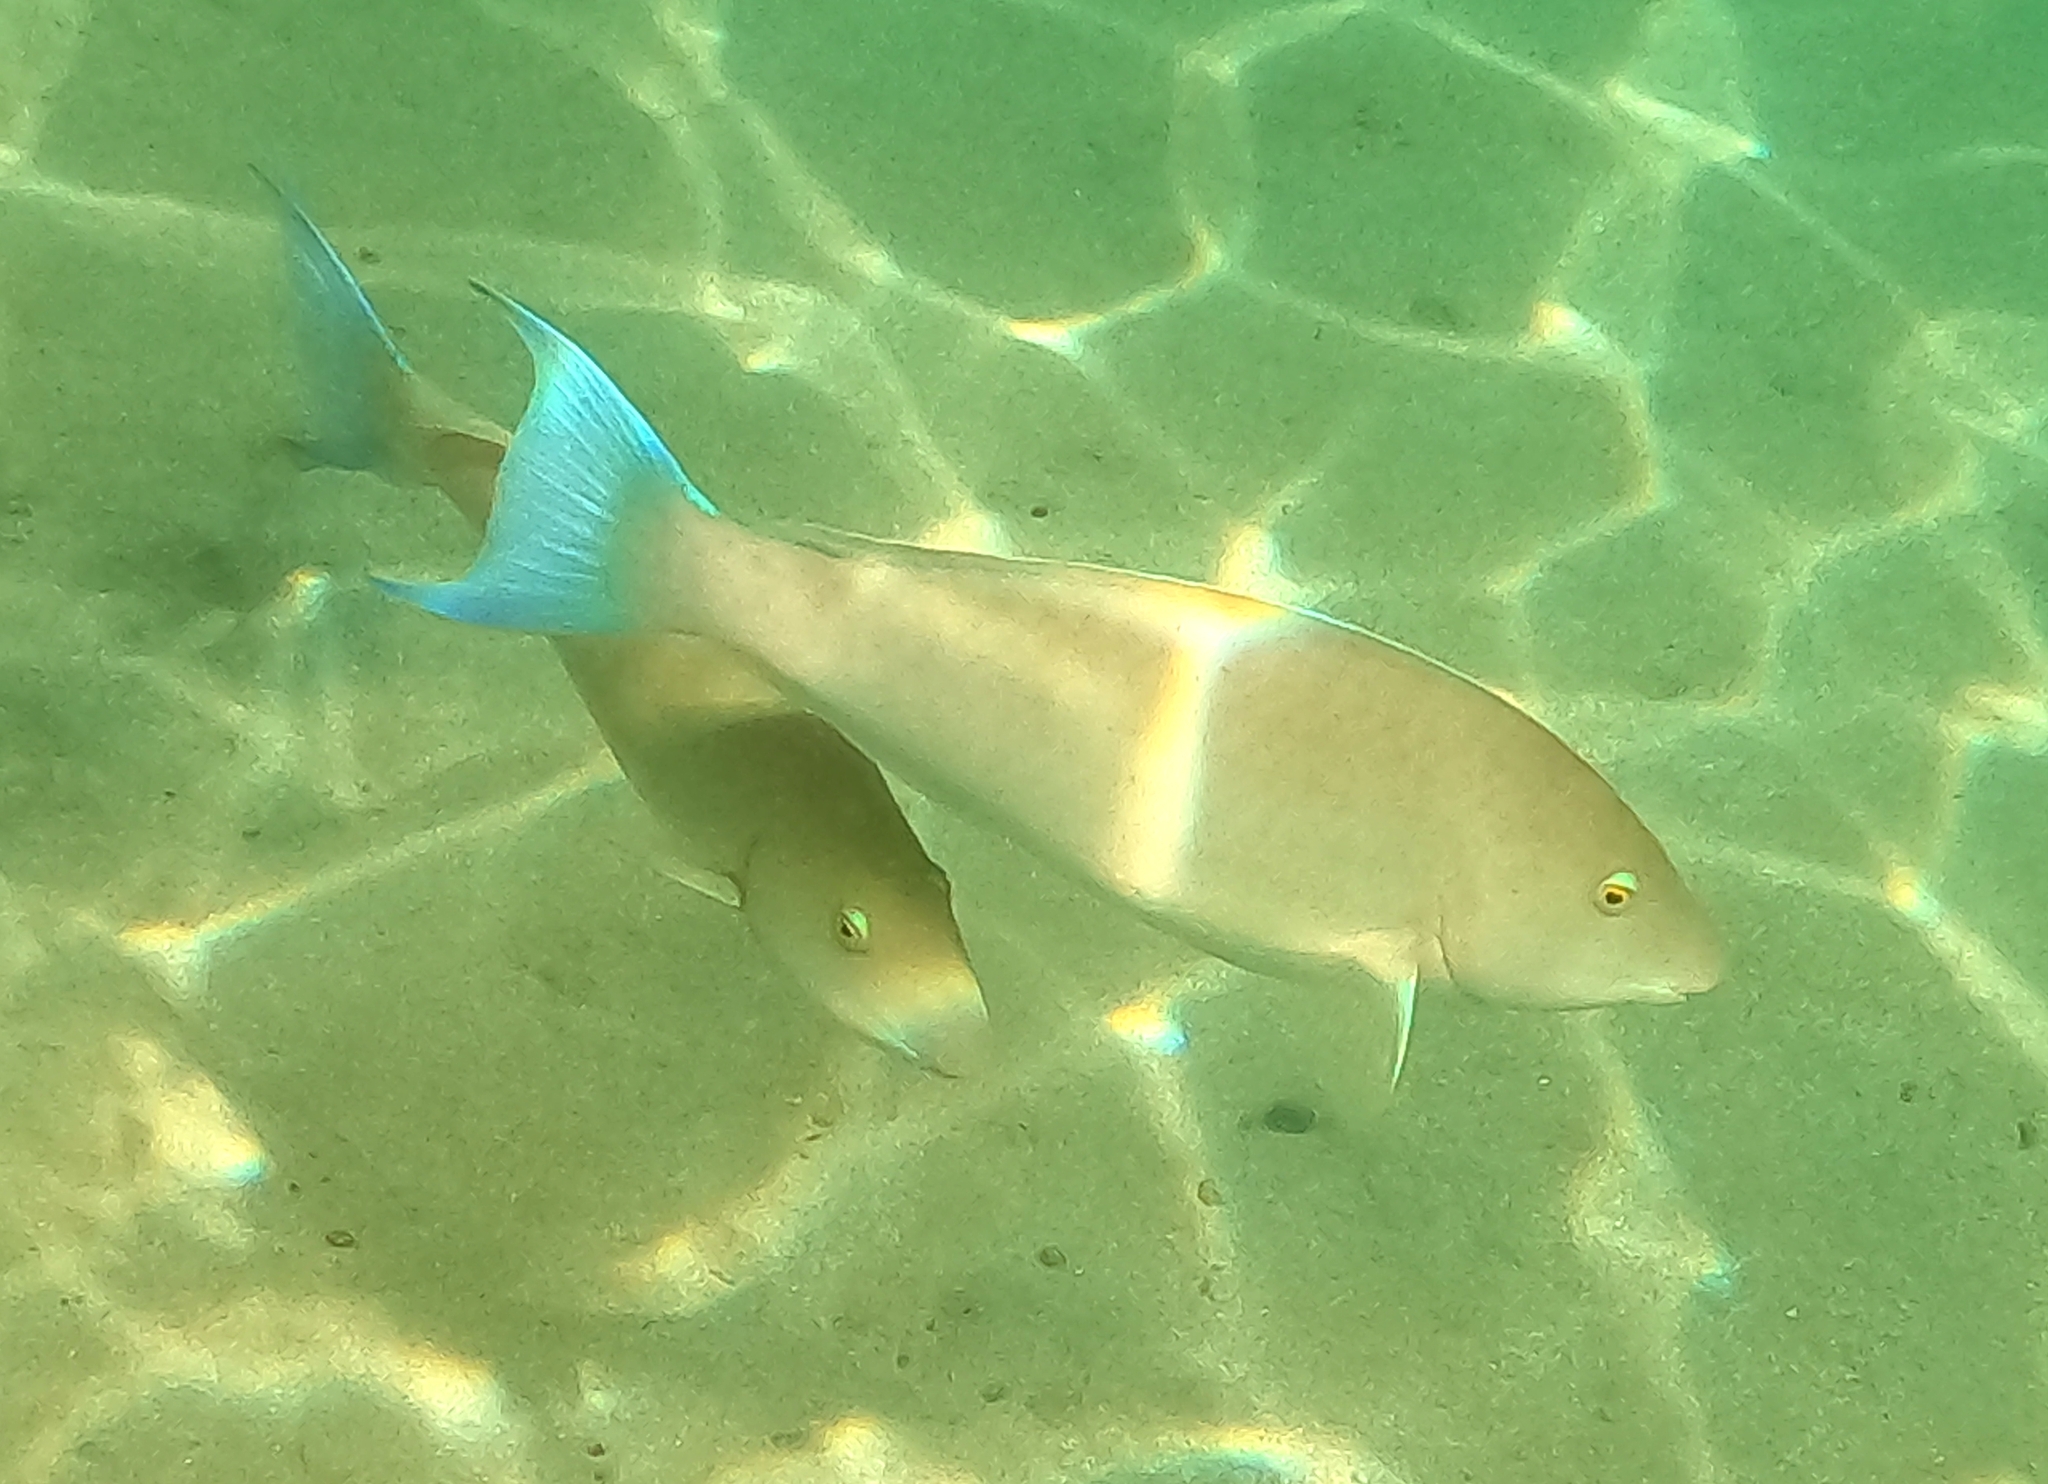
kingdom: Animalia
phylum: Chordata
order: Perciformes
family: Scaridae
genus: Hipposcarus
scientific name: Hipposcarus harid
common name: Candelamoa parrotfish
